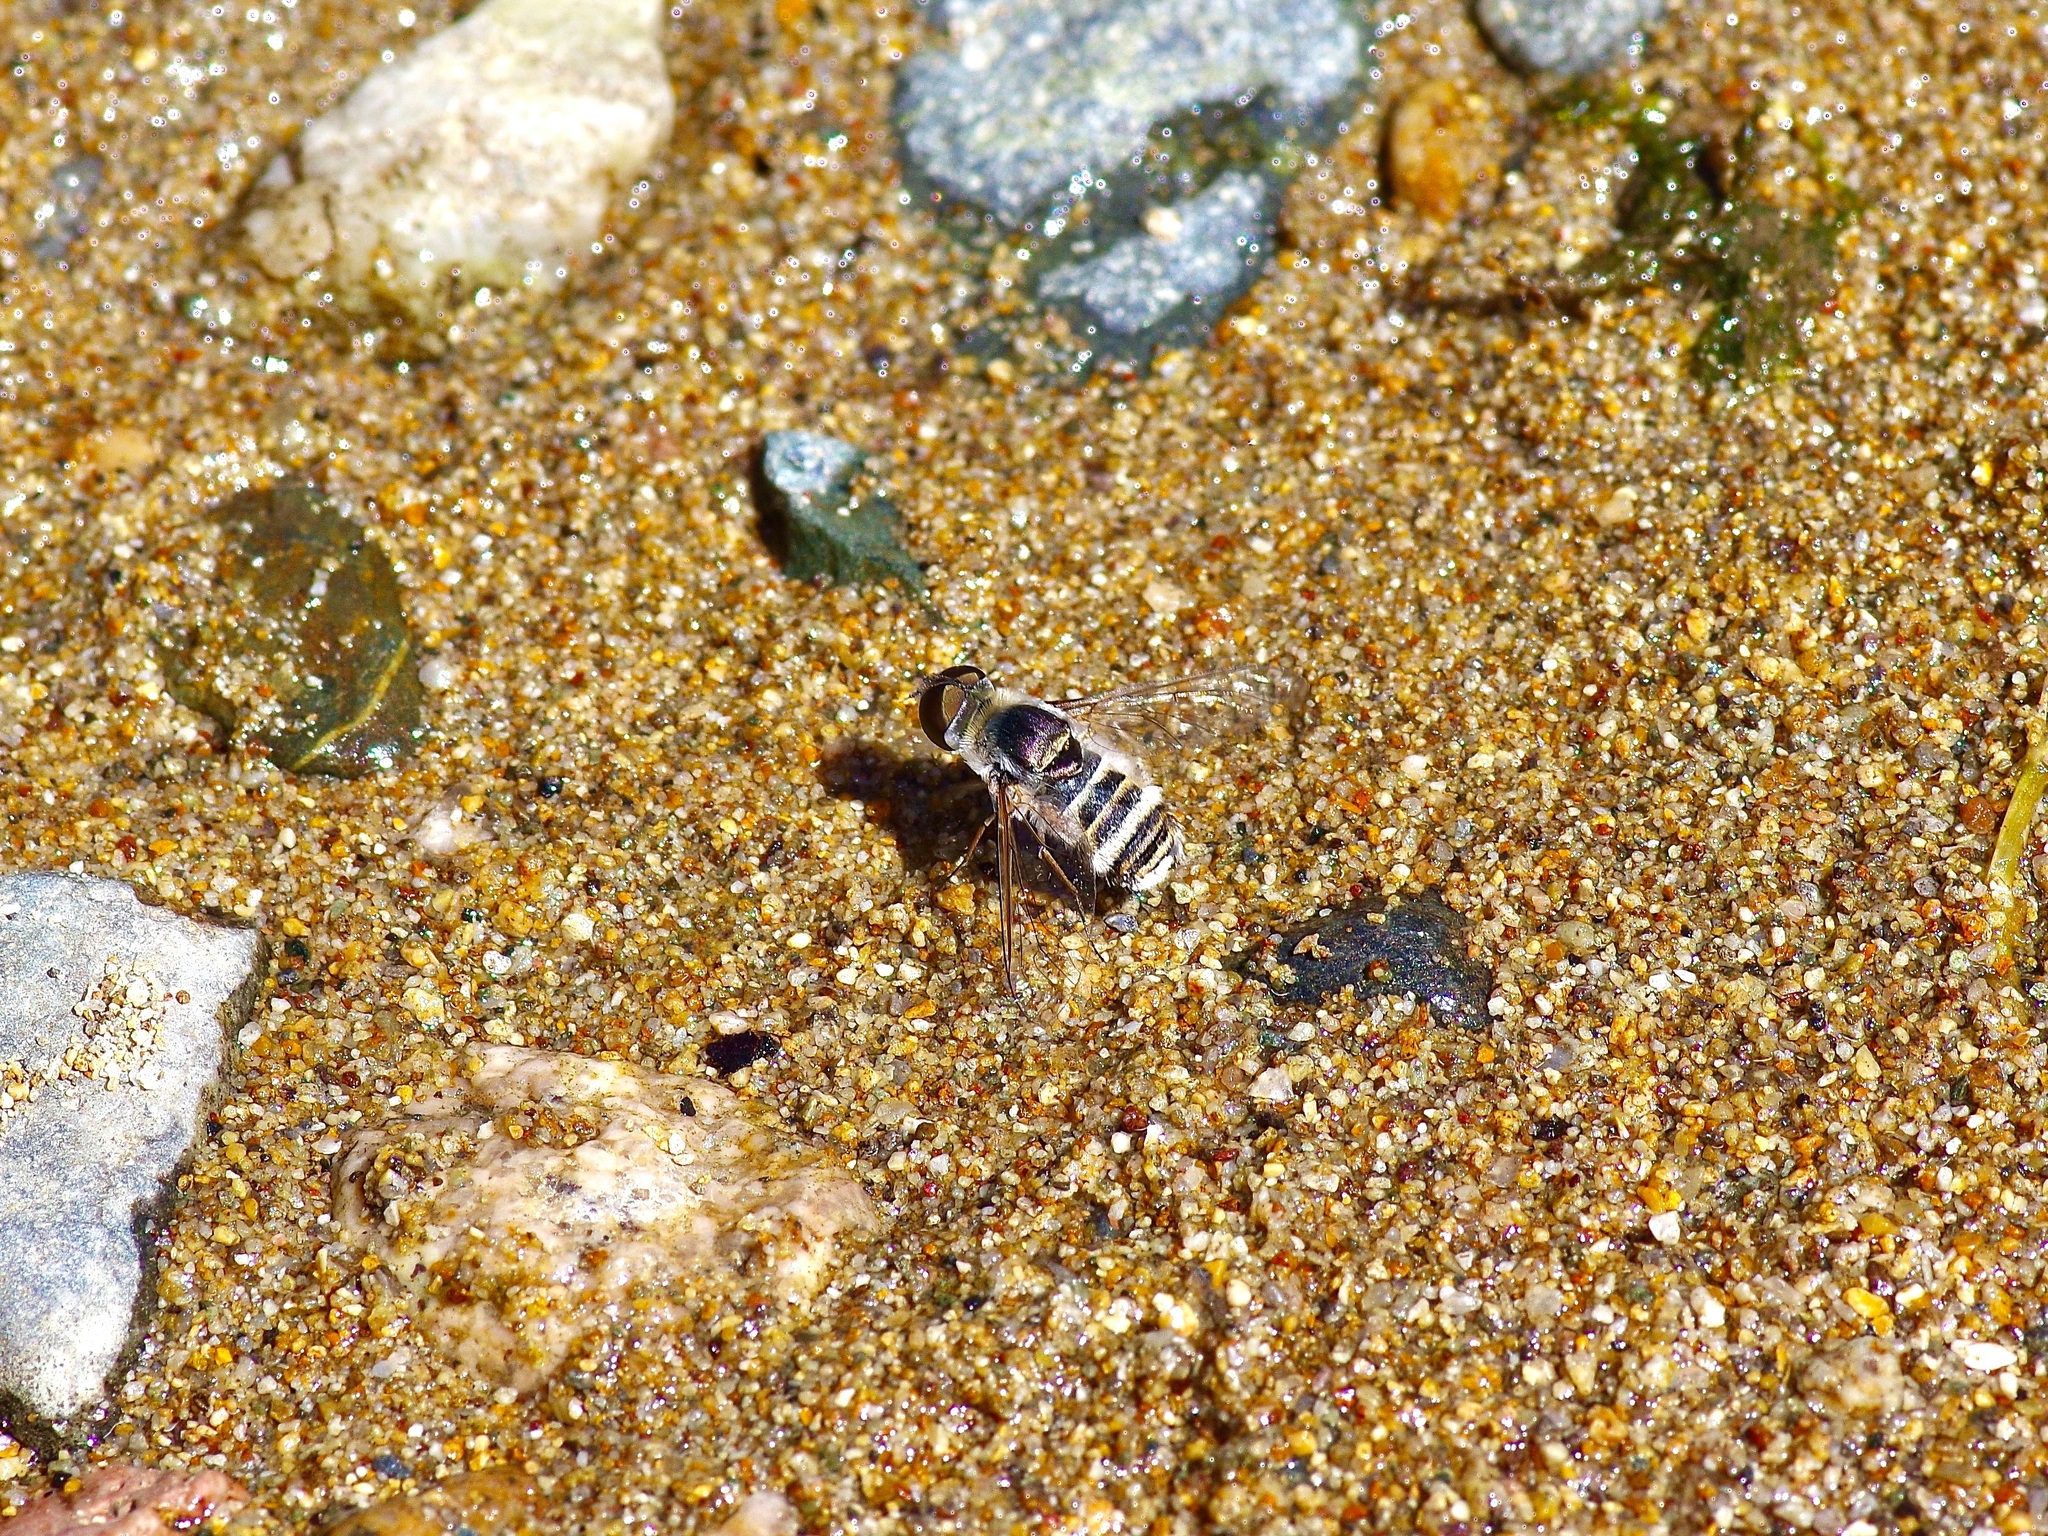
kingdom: Animalia
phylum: Arthropoda
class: Insecta
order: Diptera
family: Bombyliidae
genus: Villa
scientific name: Villa
